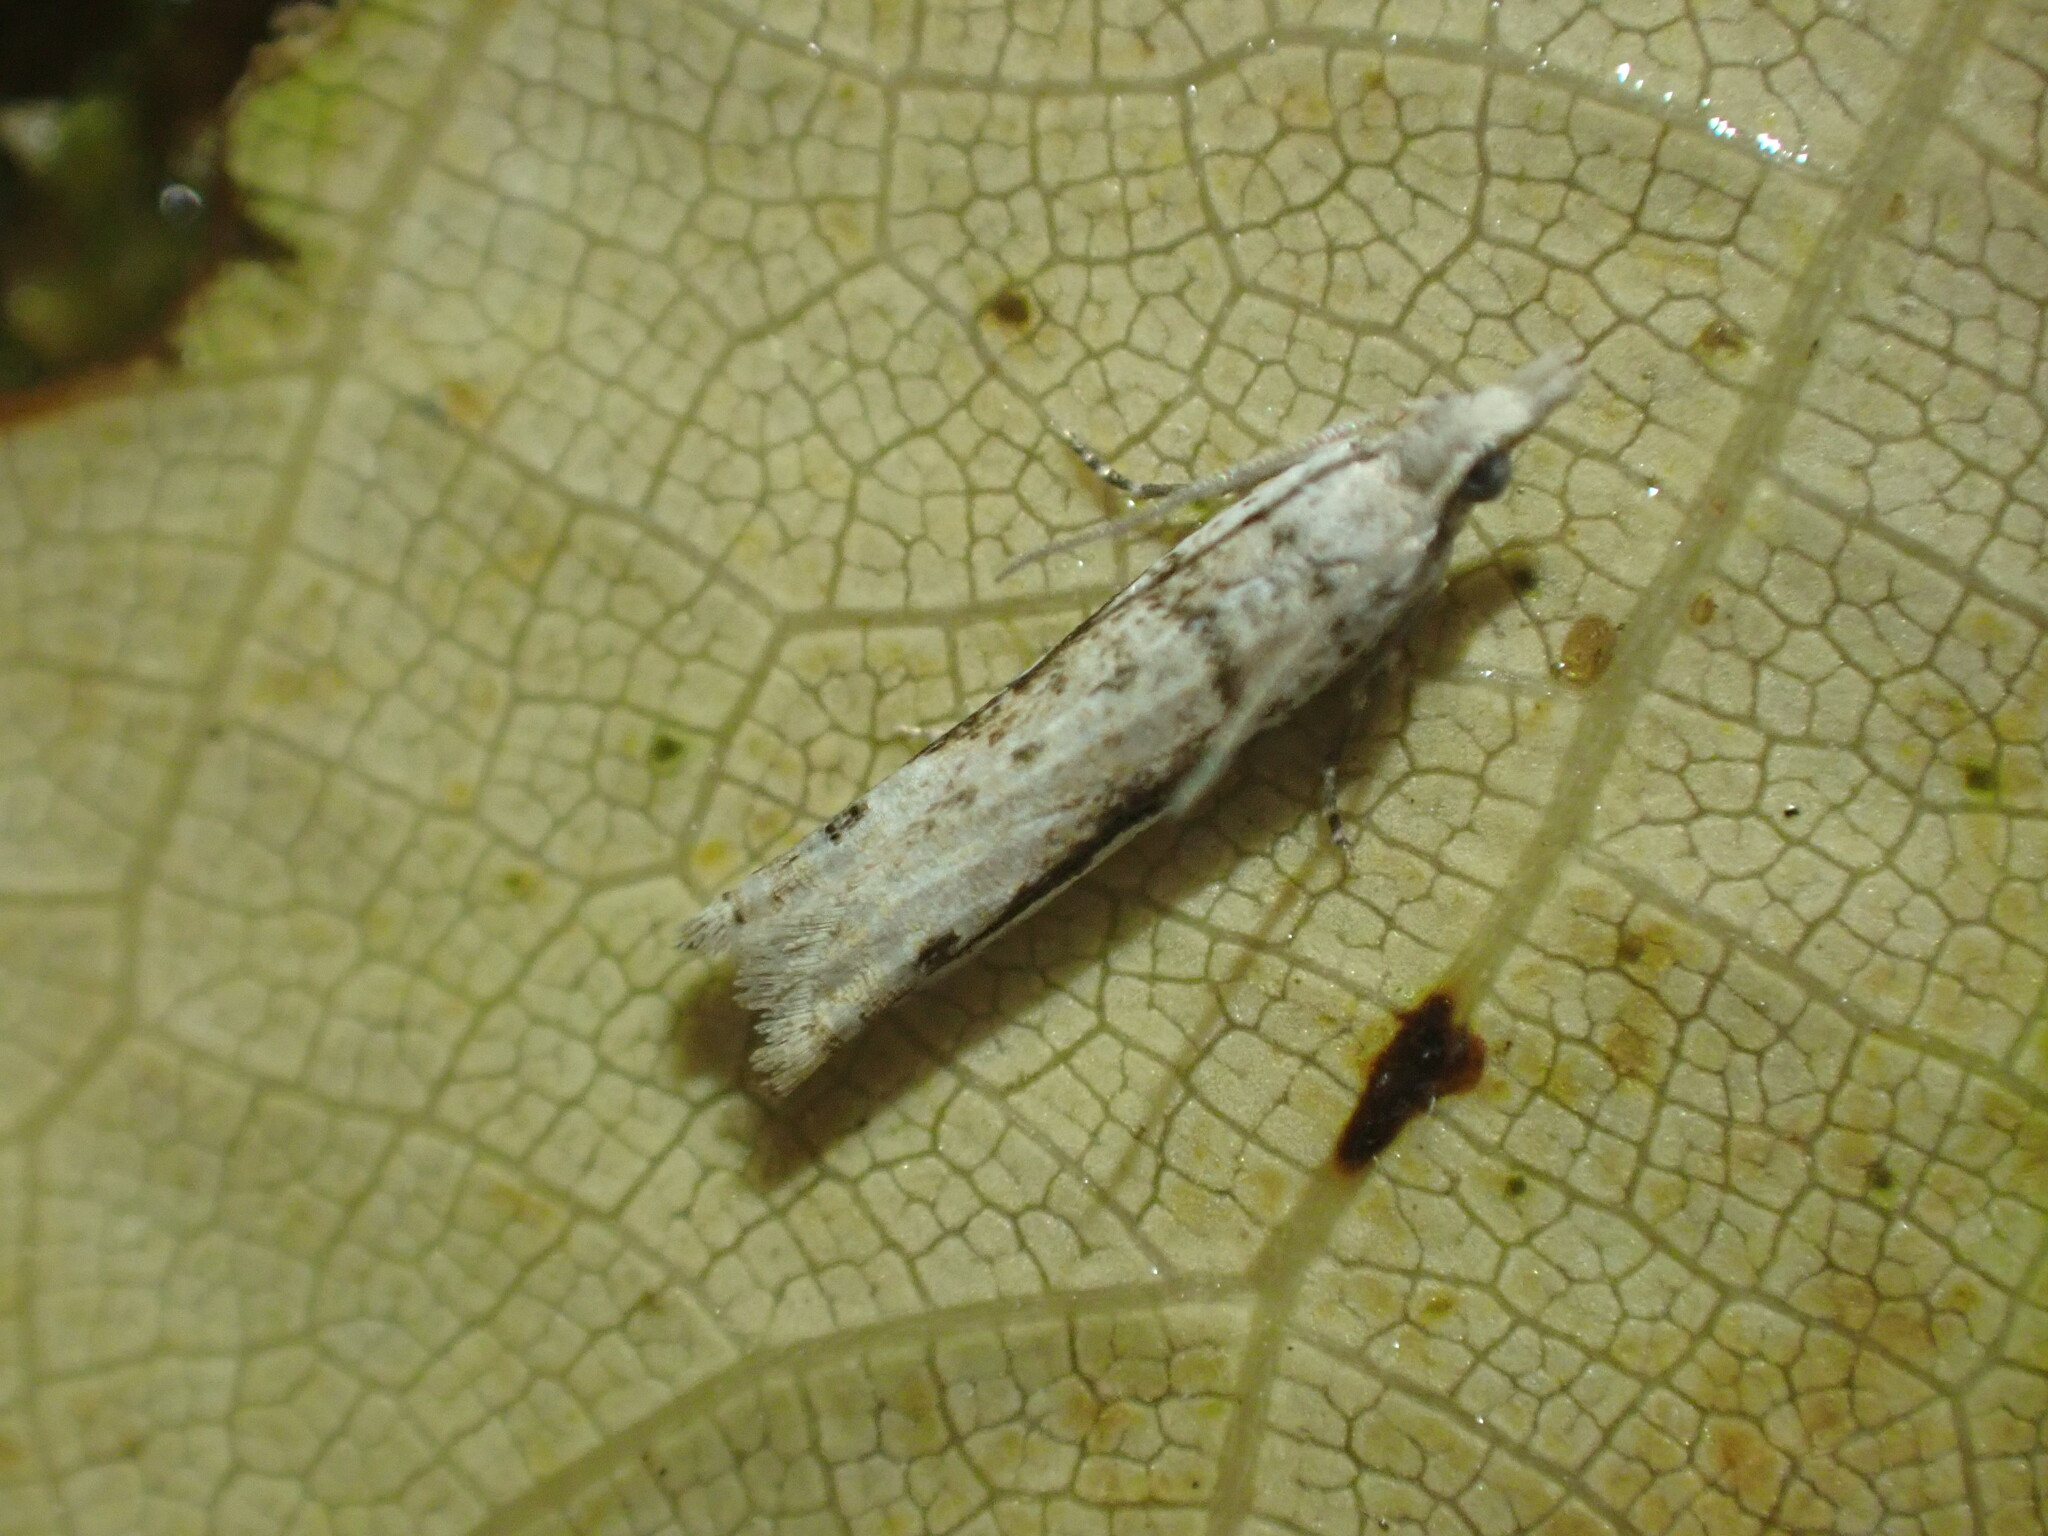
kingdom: Animalia
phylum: Arthropoda
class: Insecta
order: Lepidoptera
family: Tortricidae
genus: Holocola
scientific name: Holocola
